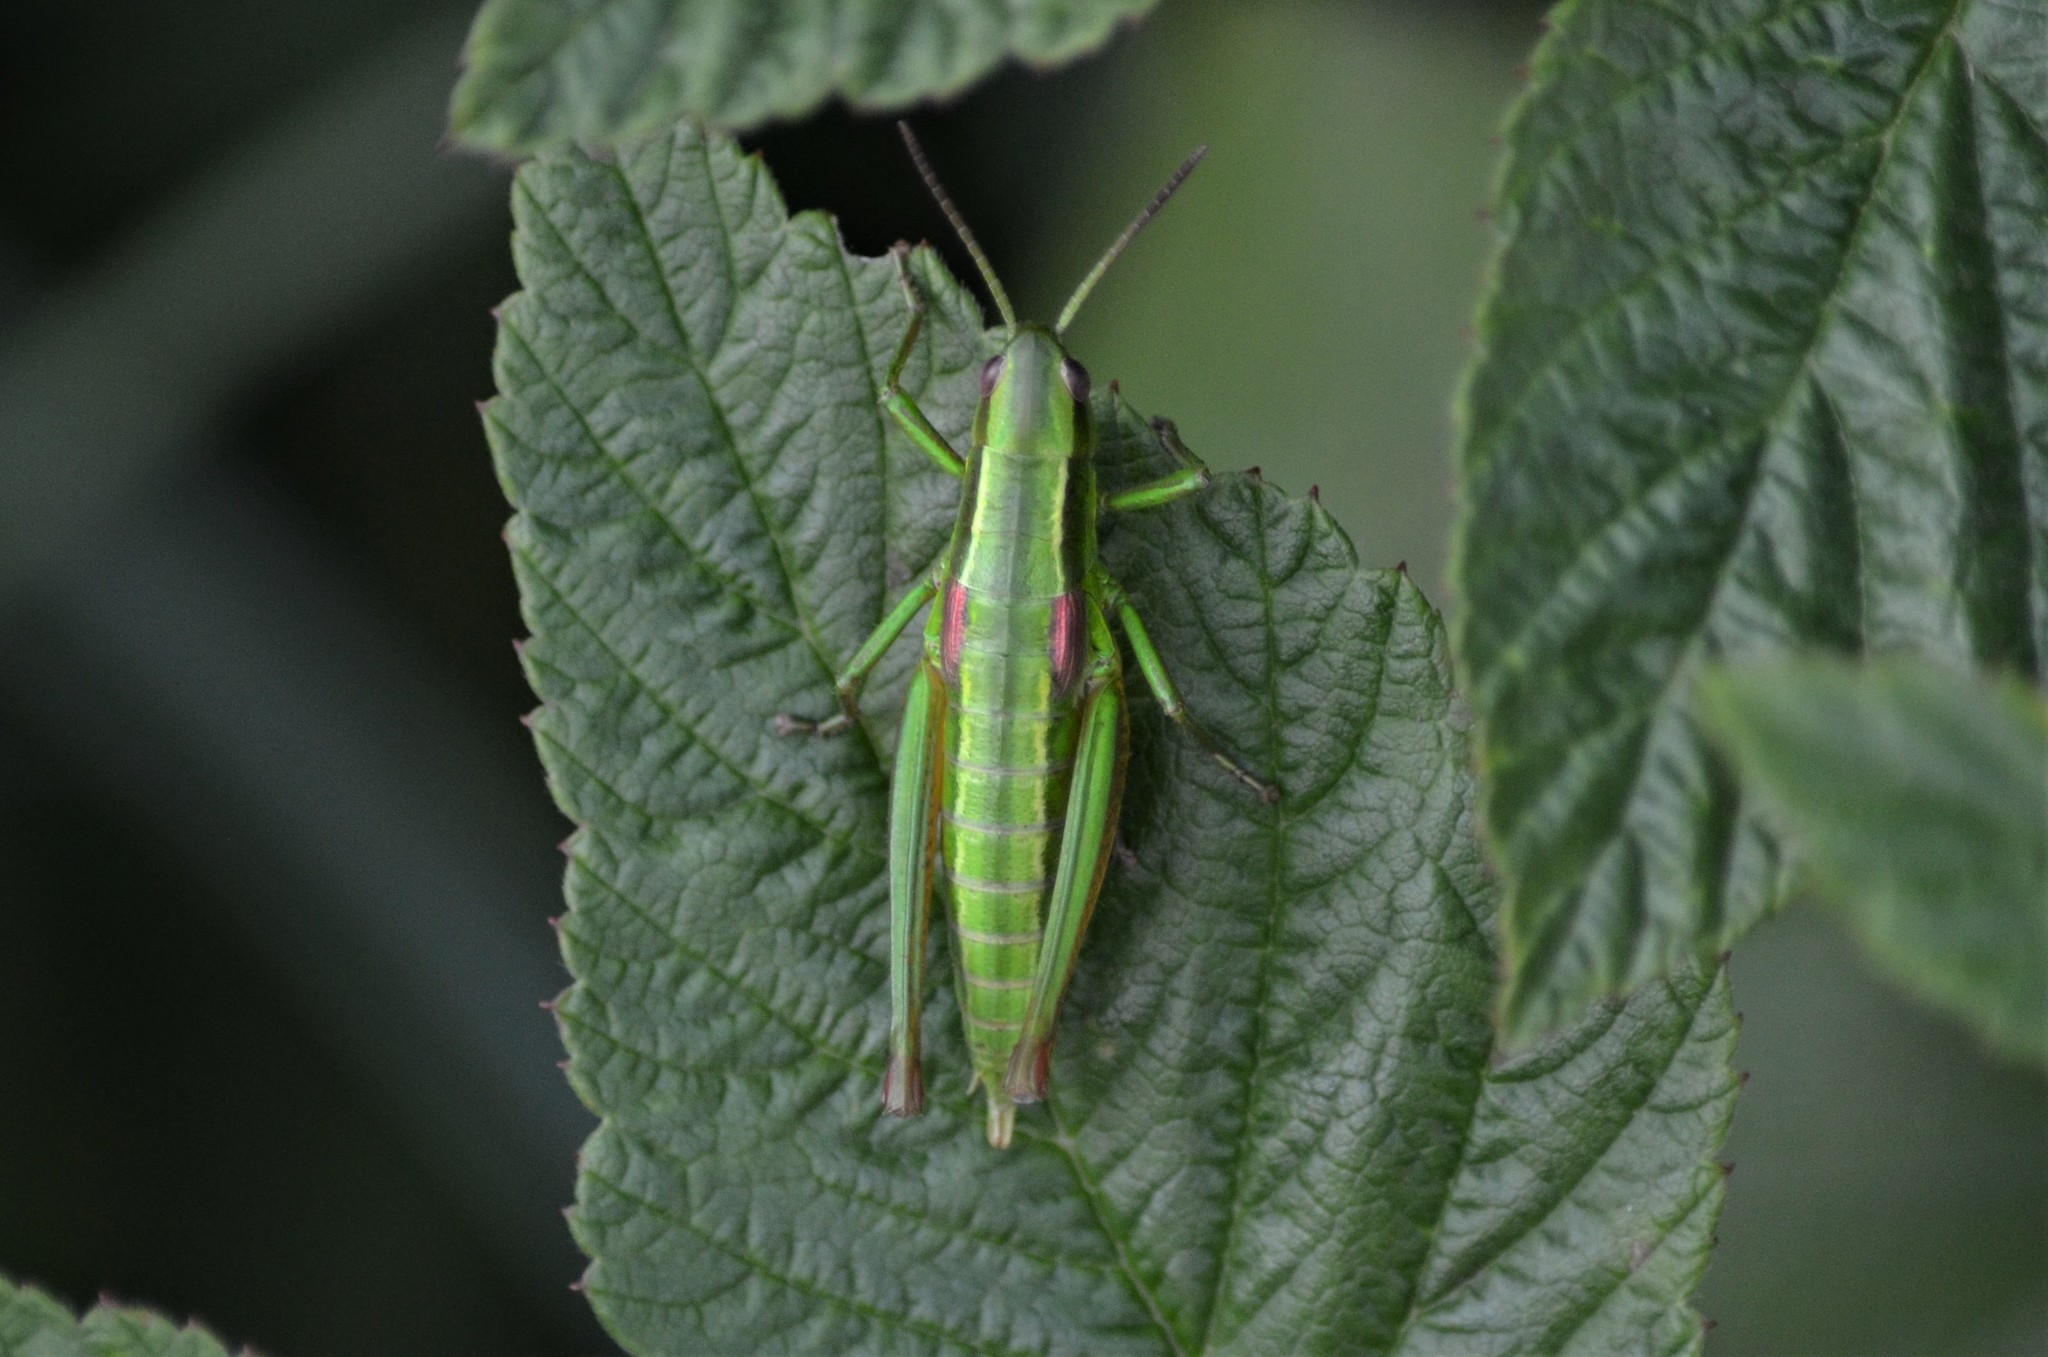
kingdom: Animalia
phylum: Arthropoda
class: Insecta
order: Orthoptera
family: Acrididae
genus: Euthystira
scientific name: Euthystira brachyptera
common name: Small gold grasshopper
